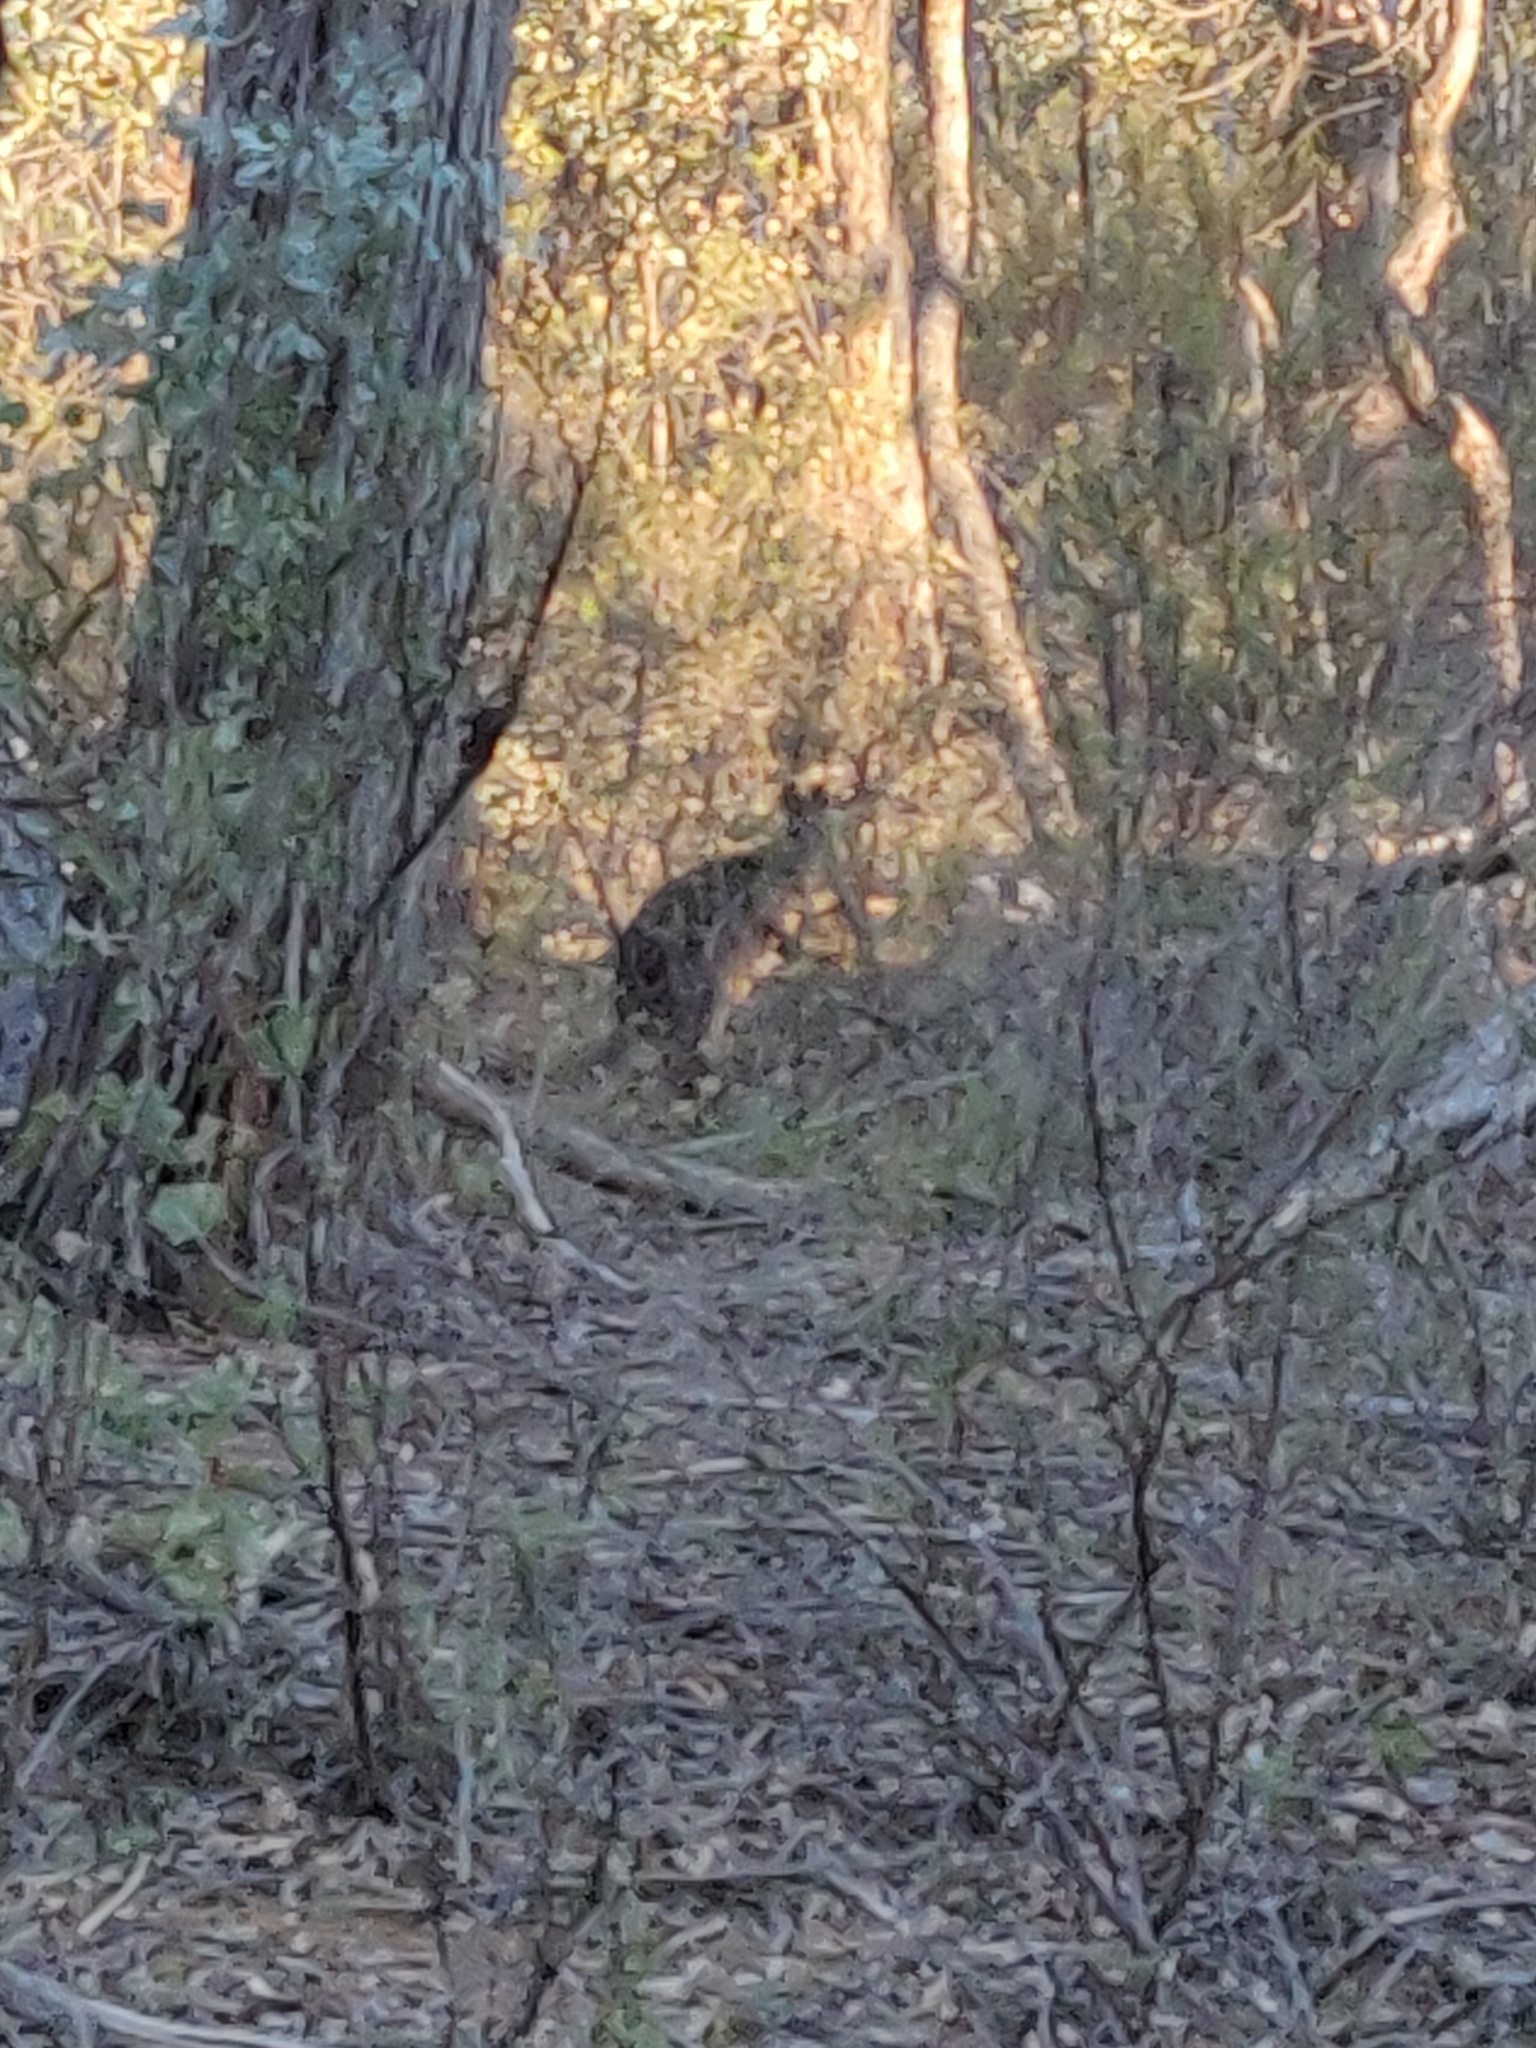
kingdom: Animalia
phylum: Chordata
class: Mammalia
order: Diprotodontia
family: Macropodidae
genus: Wallabia
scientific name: Wallabia bicolor
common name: Swamp wallaby
